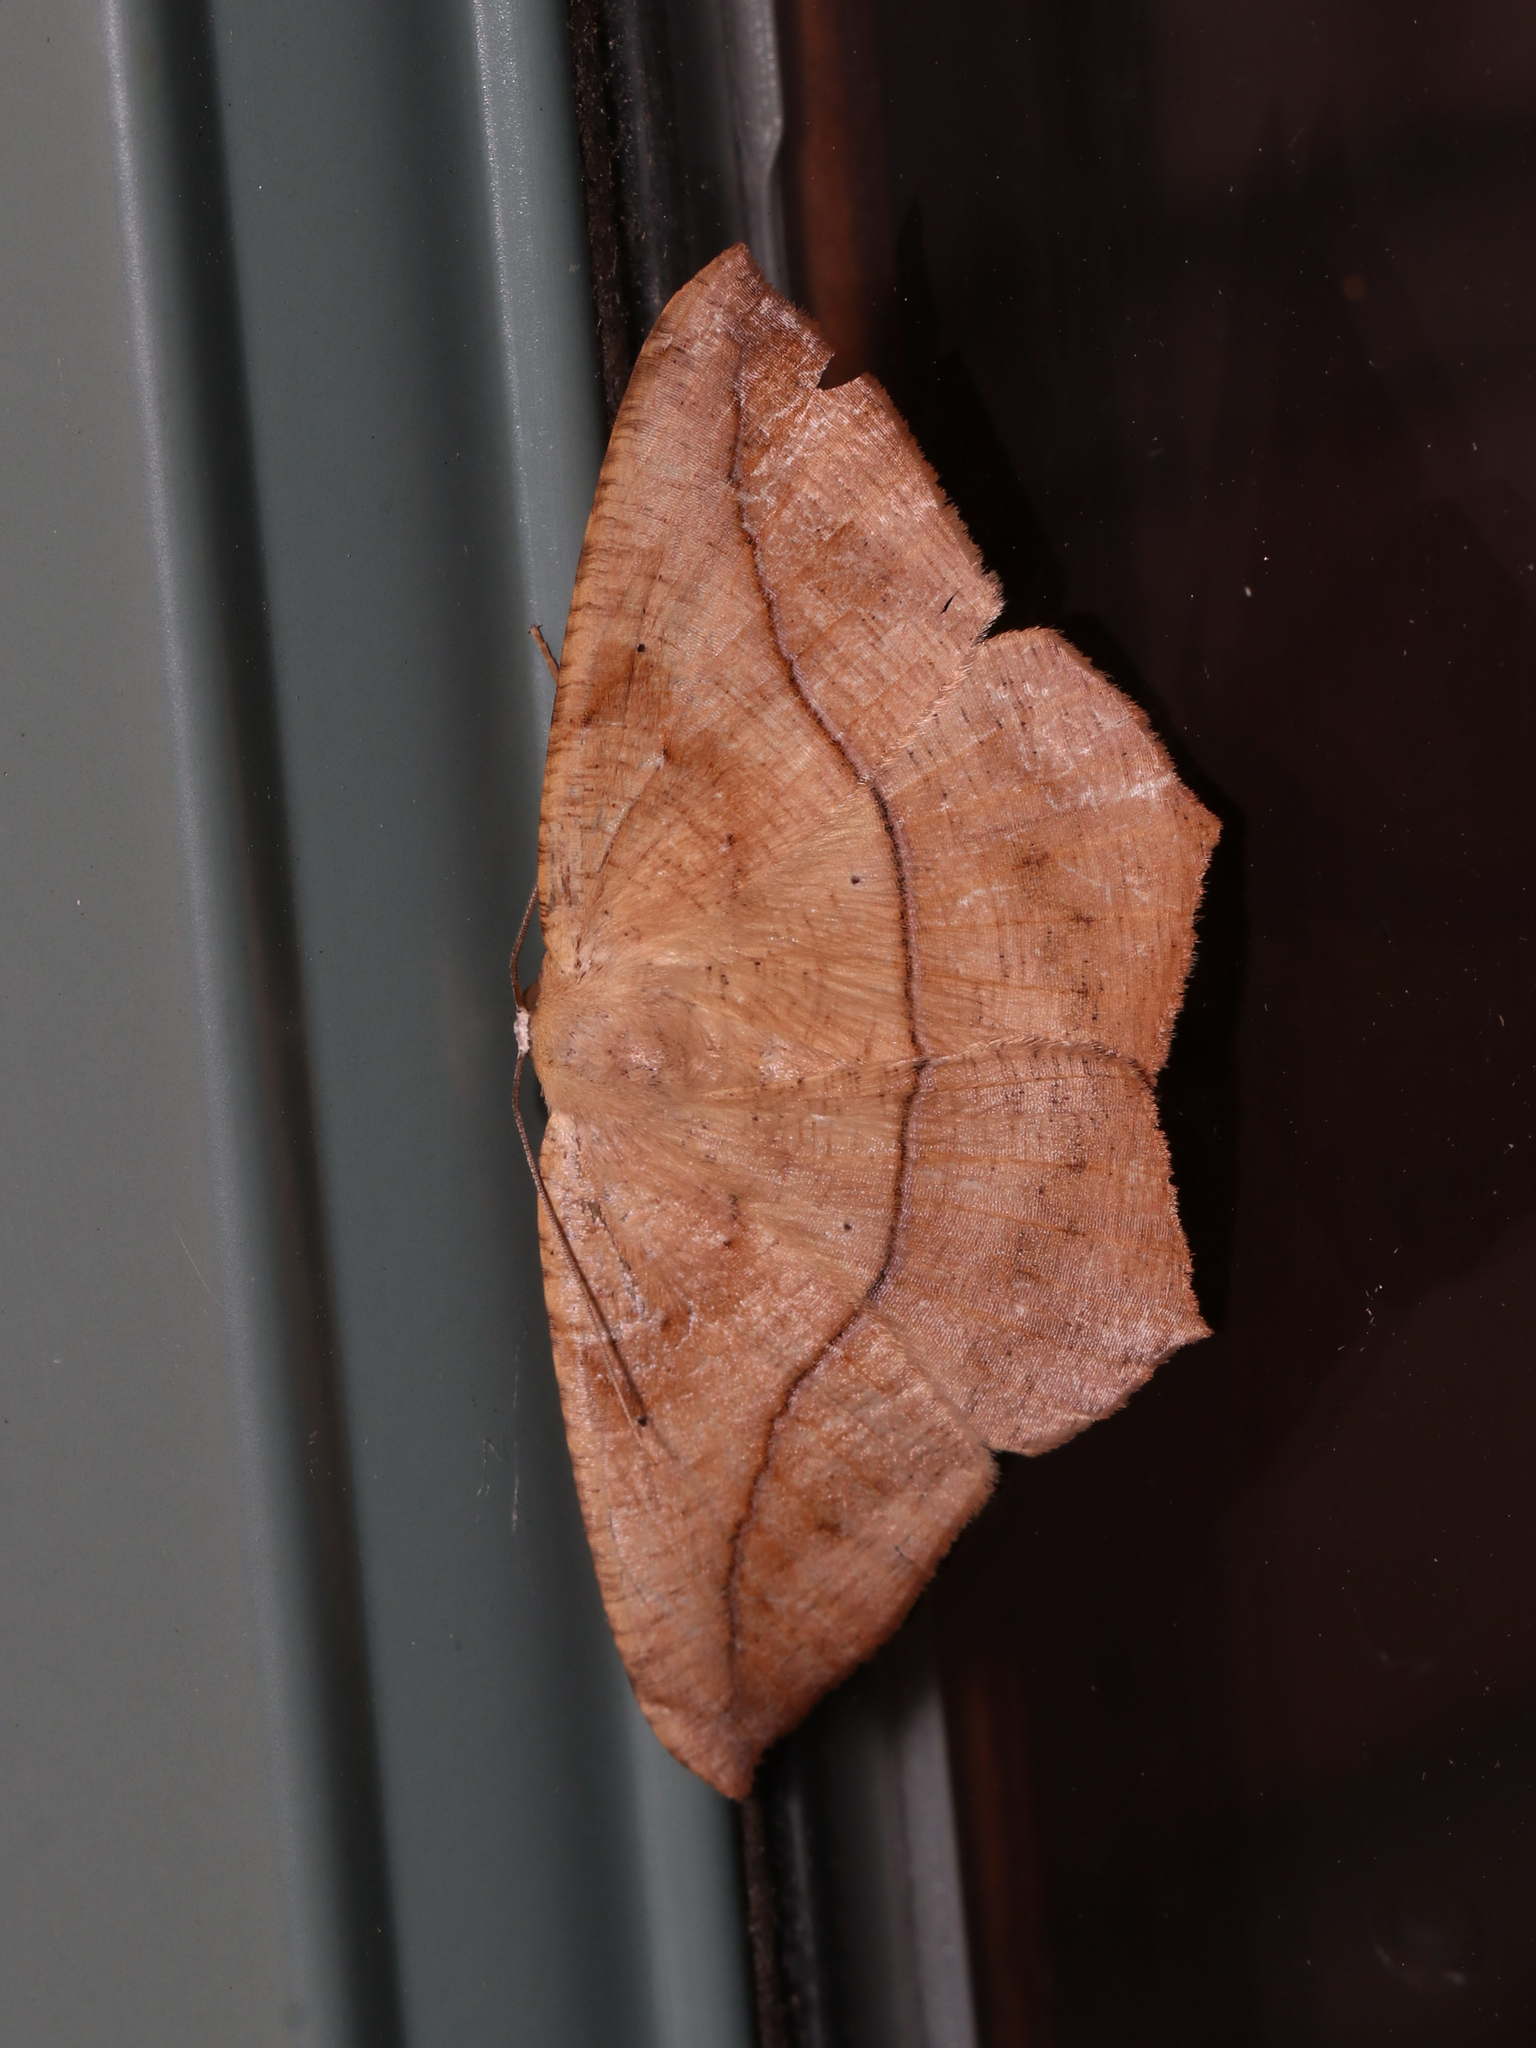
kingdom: Animalia
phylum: Arthropoda
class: Insecta
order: Lepidoptera
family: Geometridae
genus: Prochoerodes
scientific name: Prochoerodes lineola
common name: Large maple spanworm
